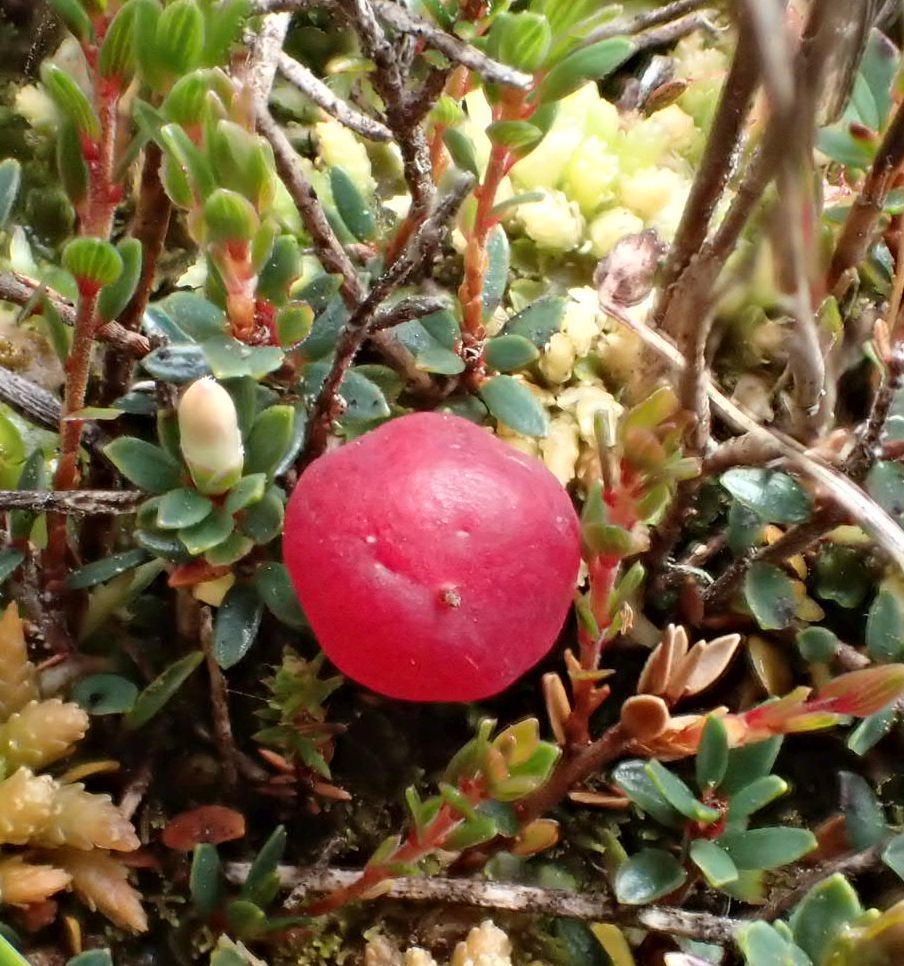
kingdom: Plantae
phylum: Tracheophyta
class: Magnoliopsida
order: Ericales
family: Ericaceae
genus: Pentachondra
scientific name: Pentachondra pumila
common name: Carpet-heath
